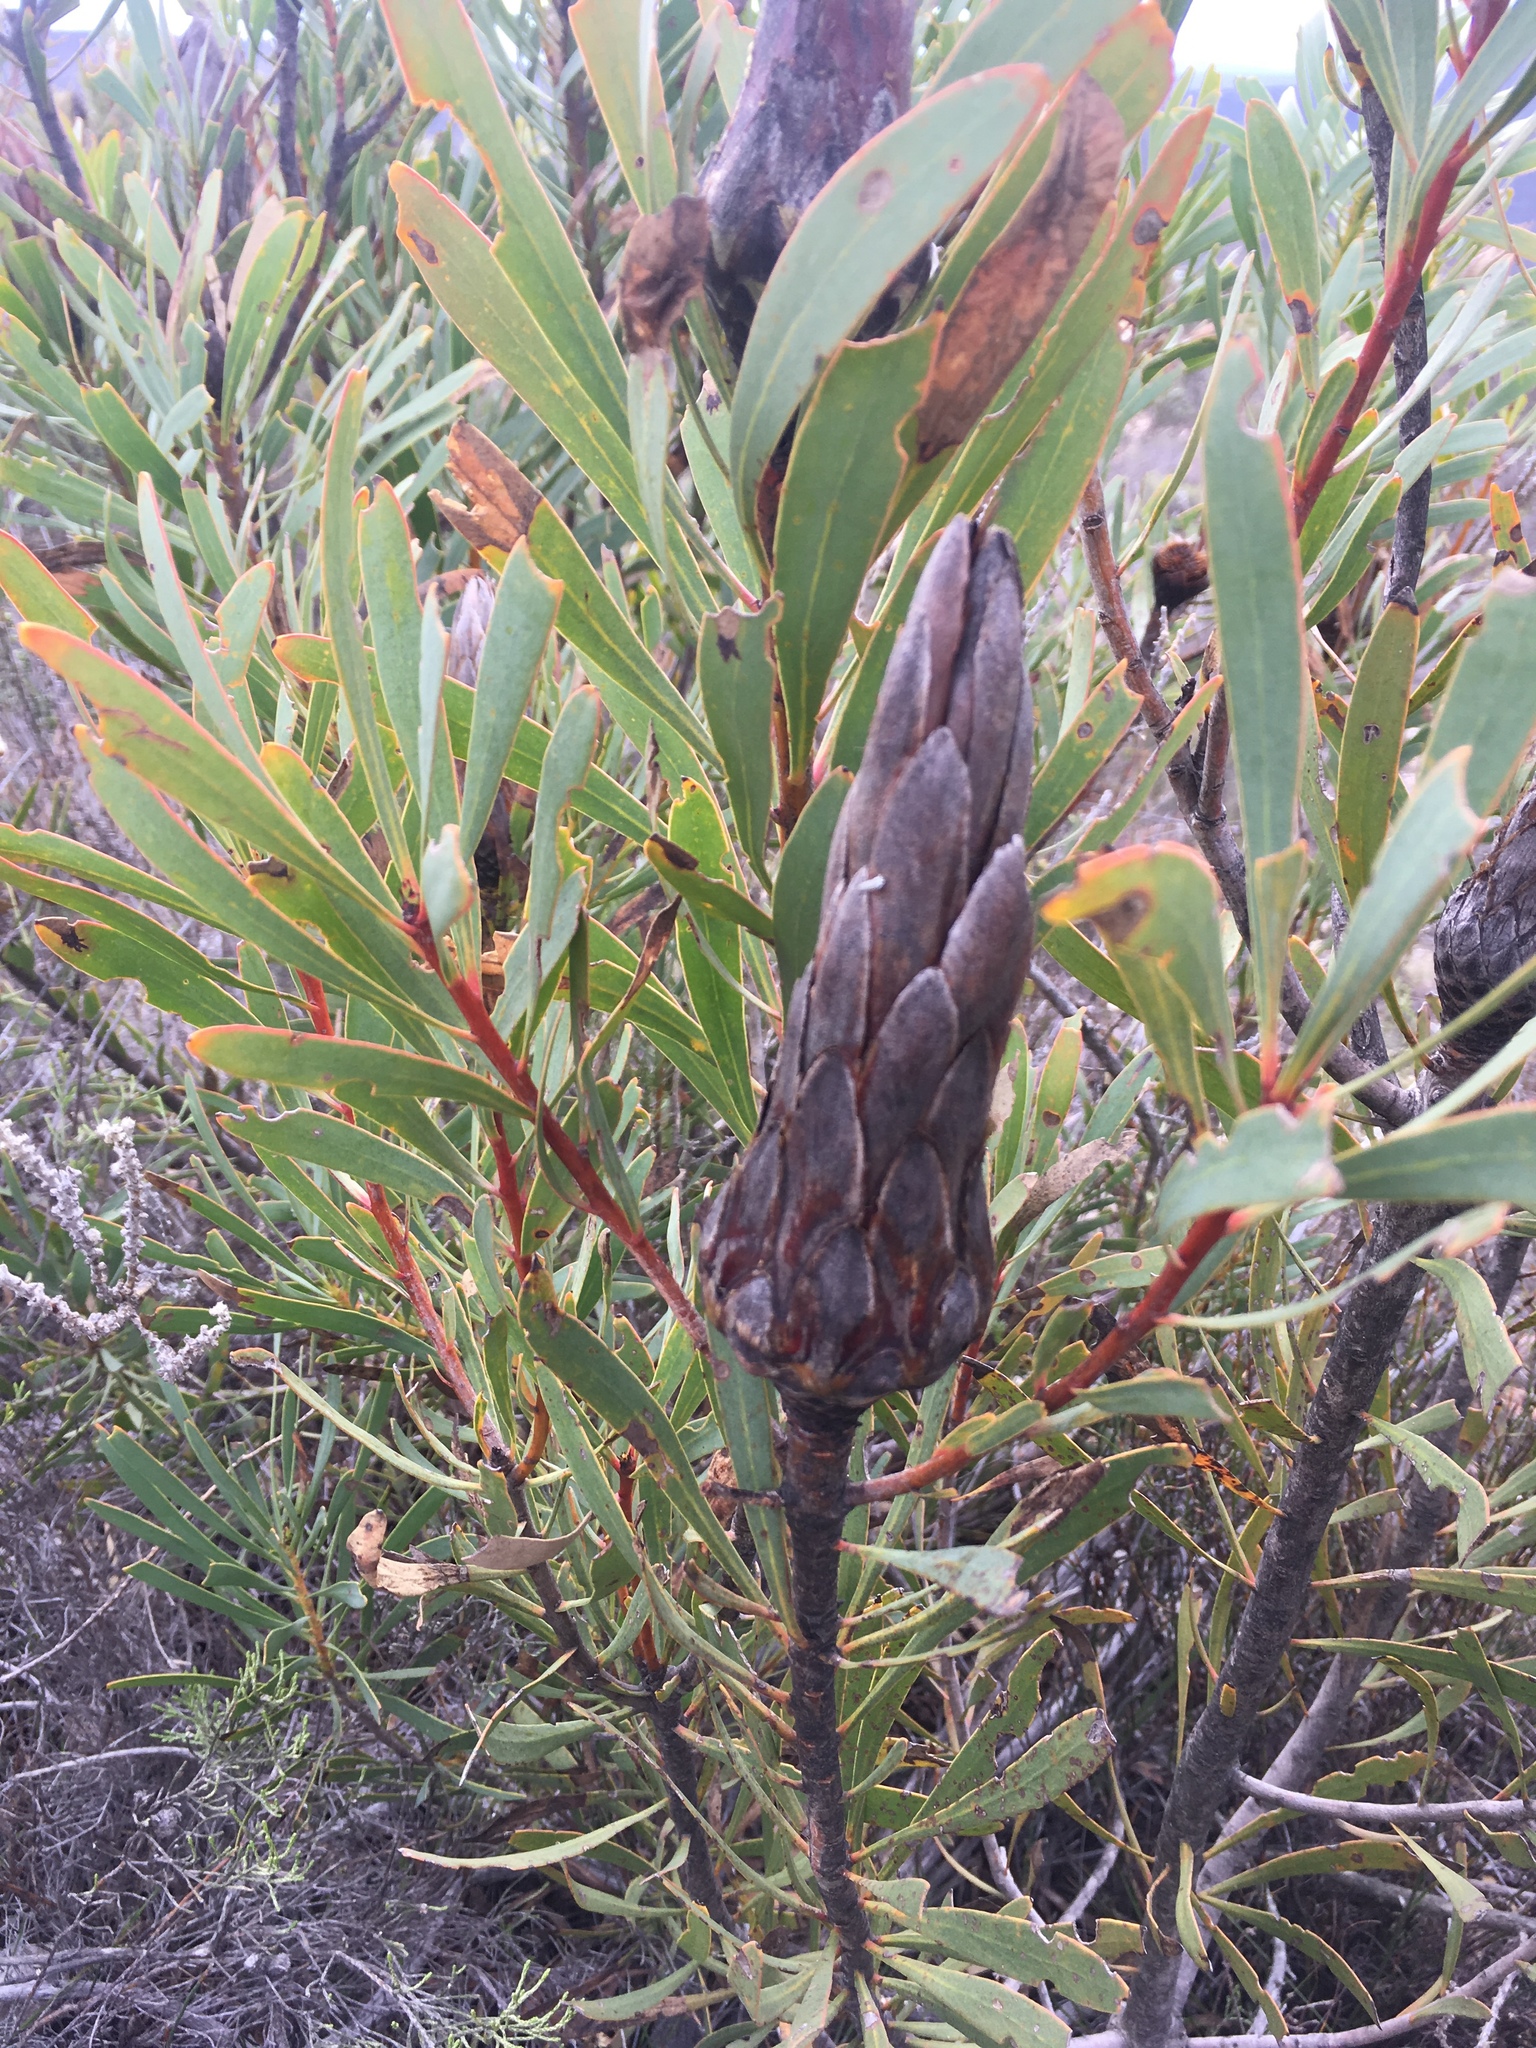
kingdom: Plantae
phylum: Tracheophyta
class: Magnoliopsida
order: Proteales
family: Proteaceae
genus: Protea
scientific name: Protea repens
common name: Sugarbush
